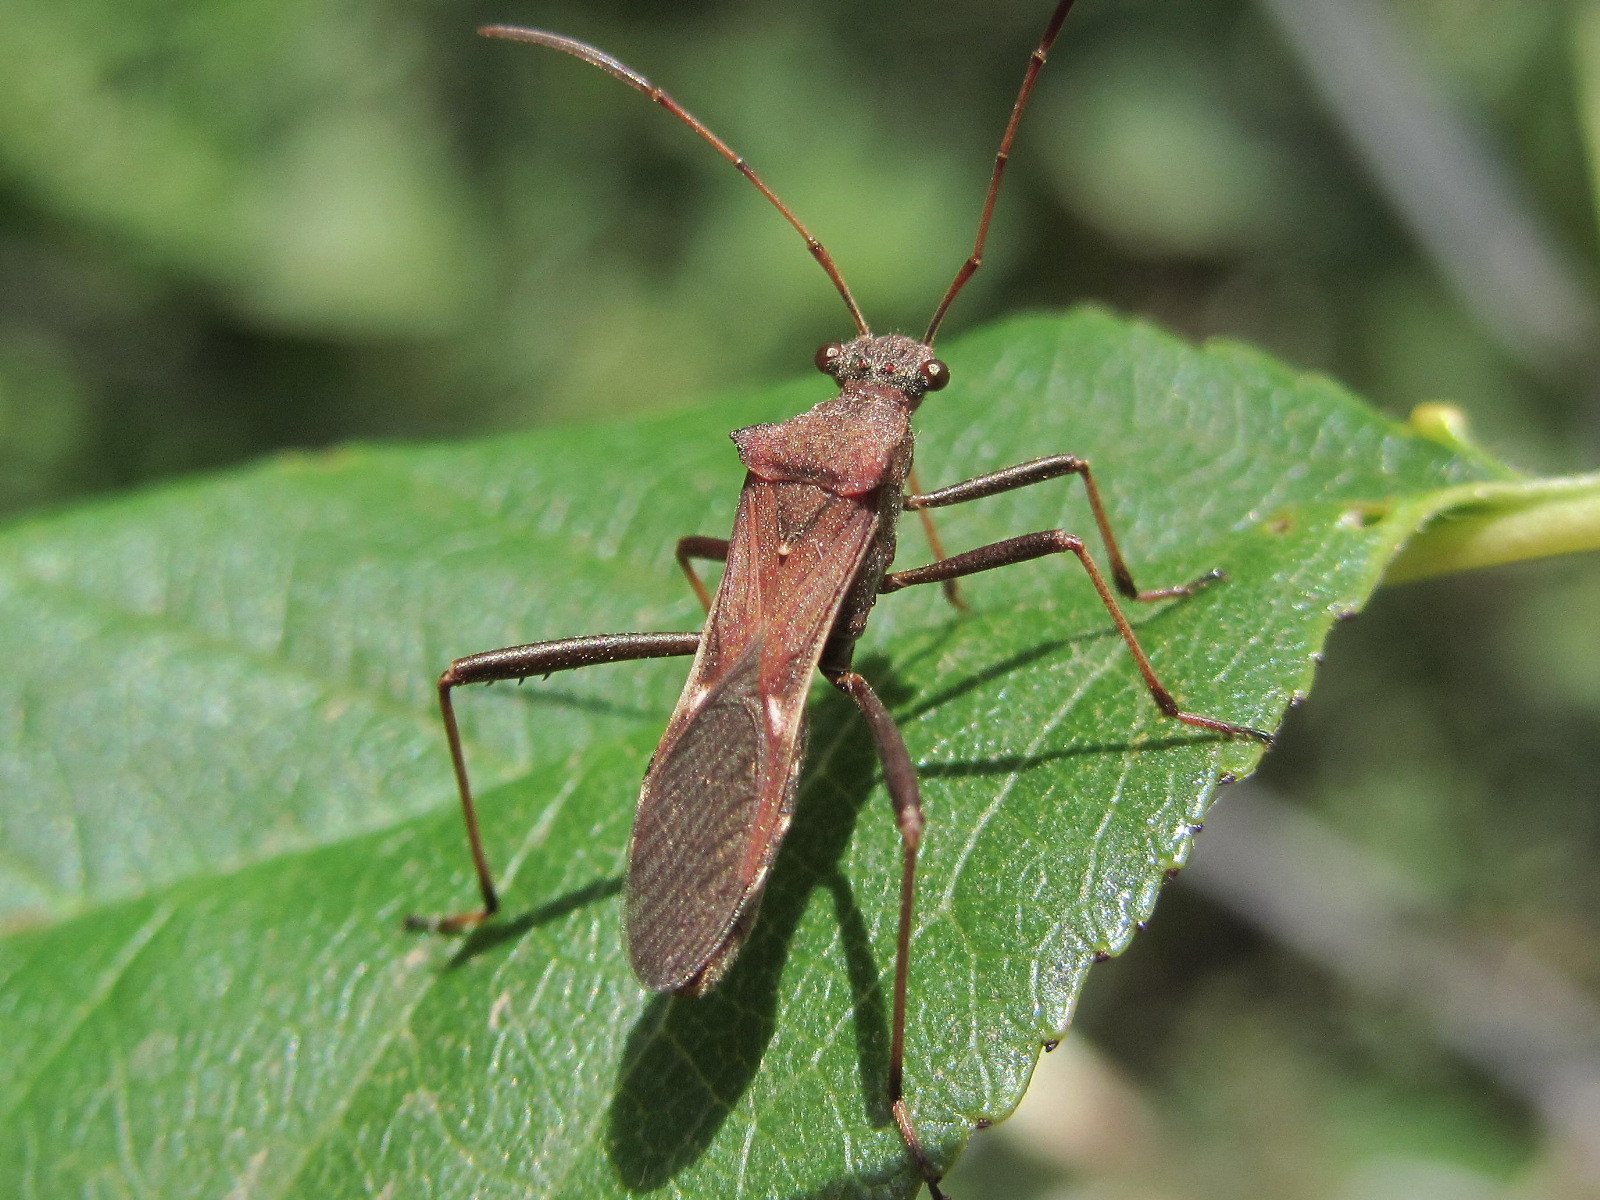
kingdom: Animalia
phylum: Arthropoda
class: Insecta
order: Hemiptera
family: Alydidae
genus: Megalotomus
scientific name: Megalotomus ornaticeps
